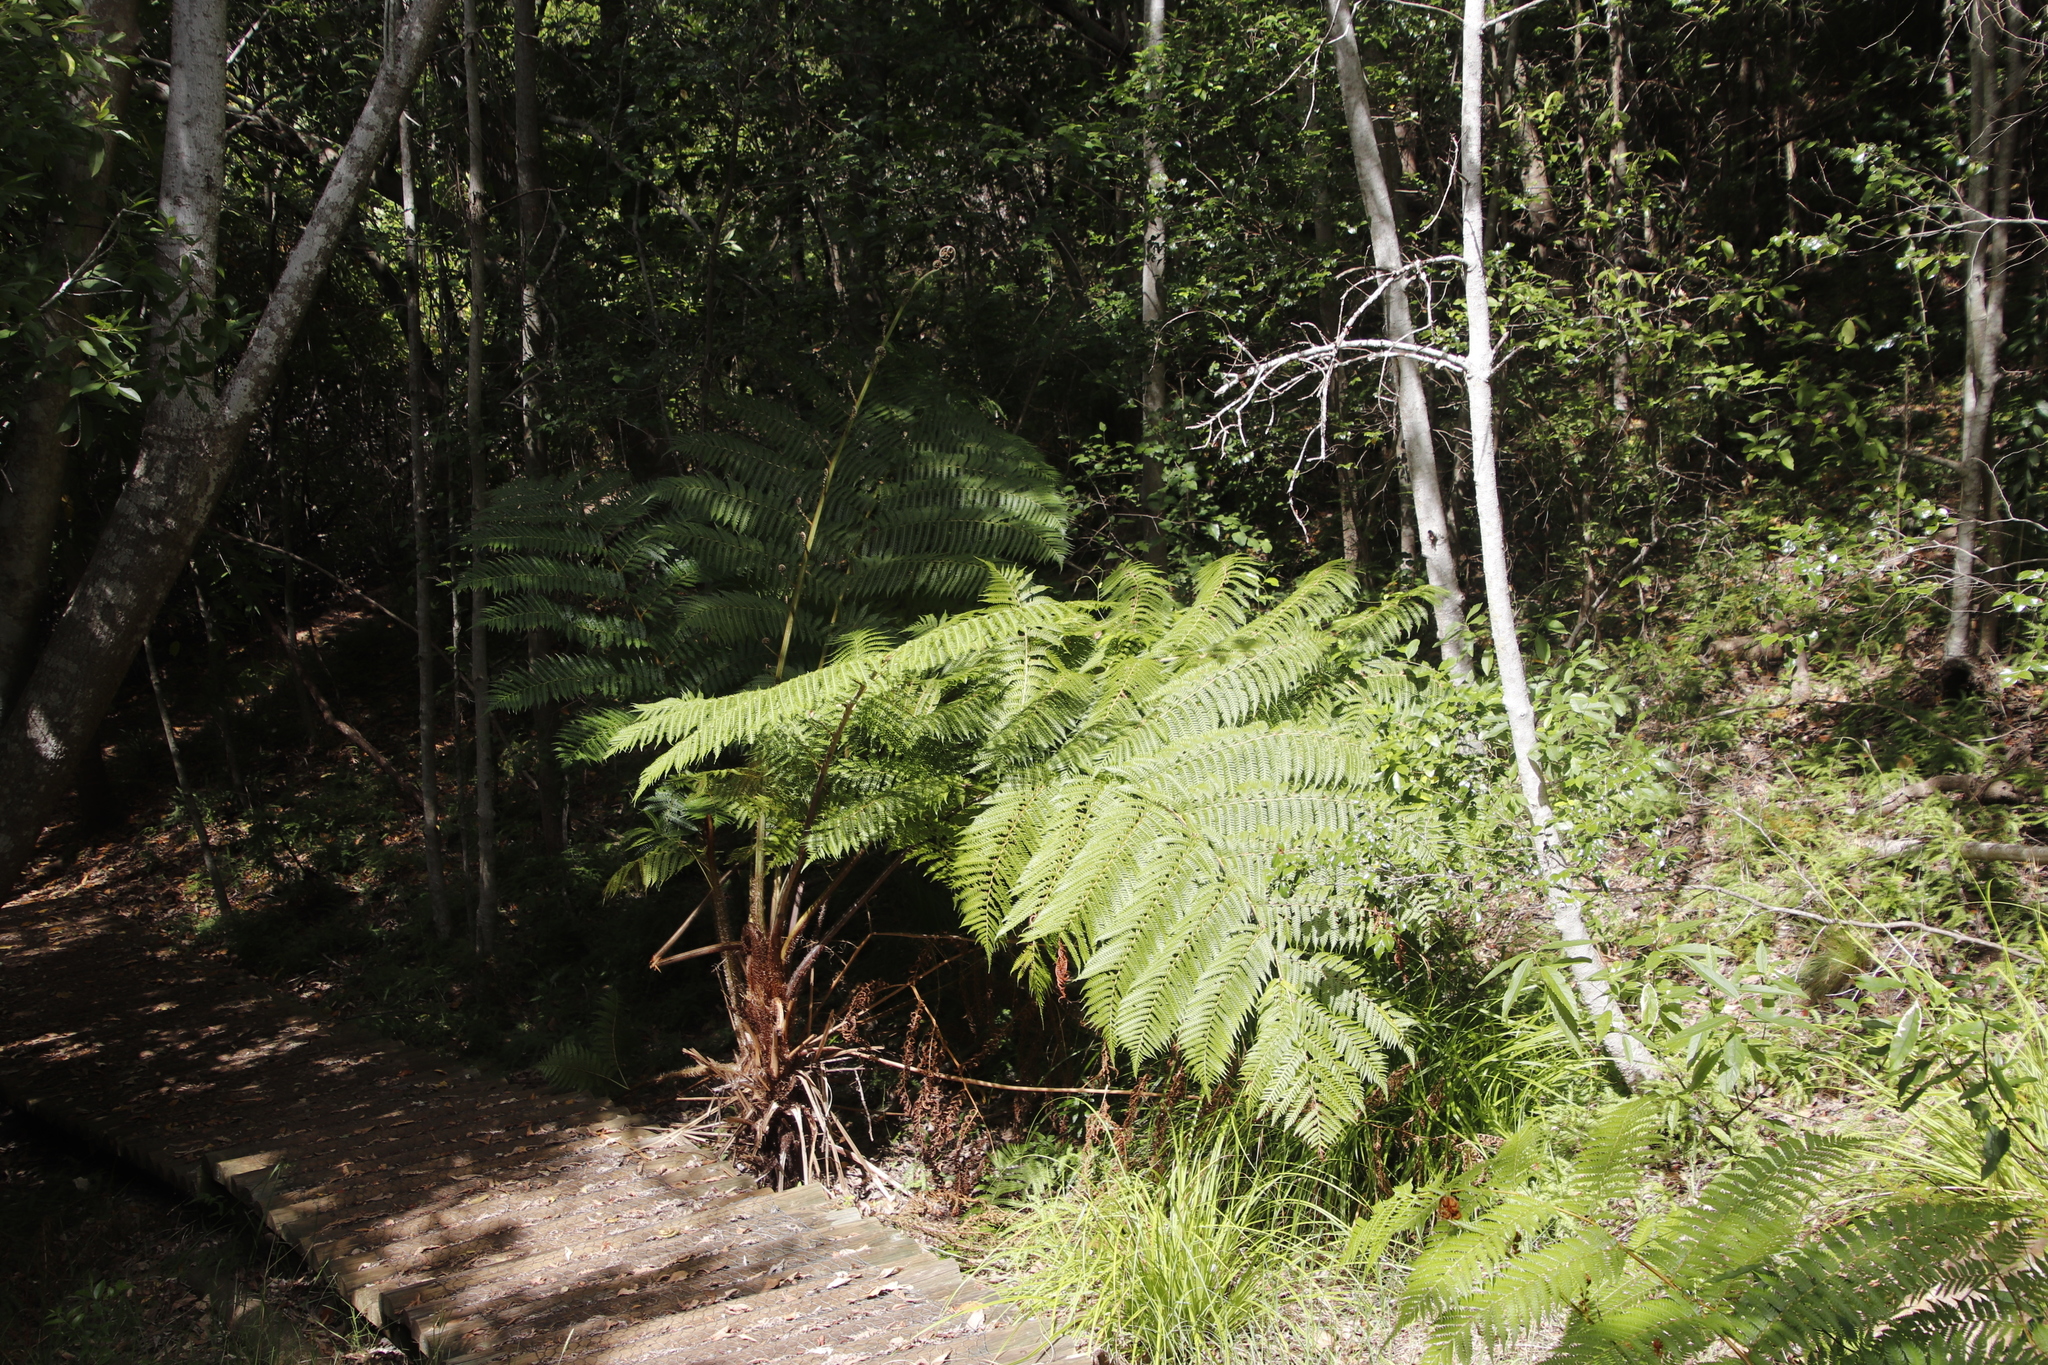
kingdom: Plantae
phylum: Tracheophyta
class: Polypodiopsida
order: Cyatheales
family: Cyatheaceae
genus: Sphaeropteris
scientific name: Sphaeropteris cooperi
